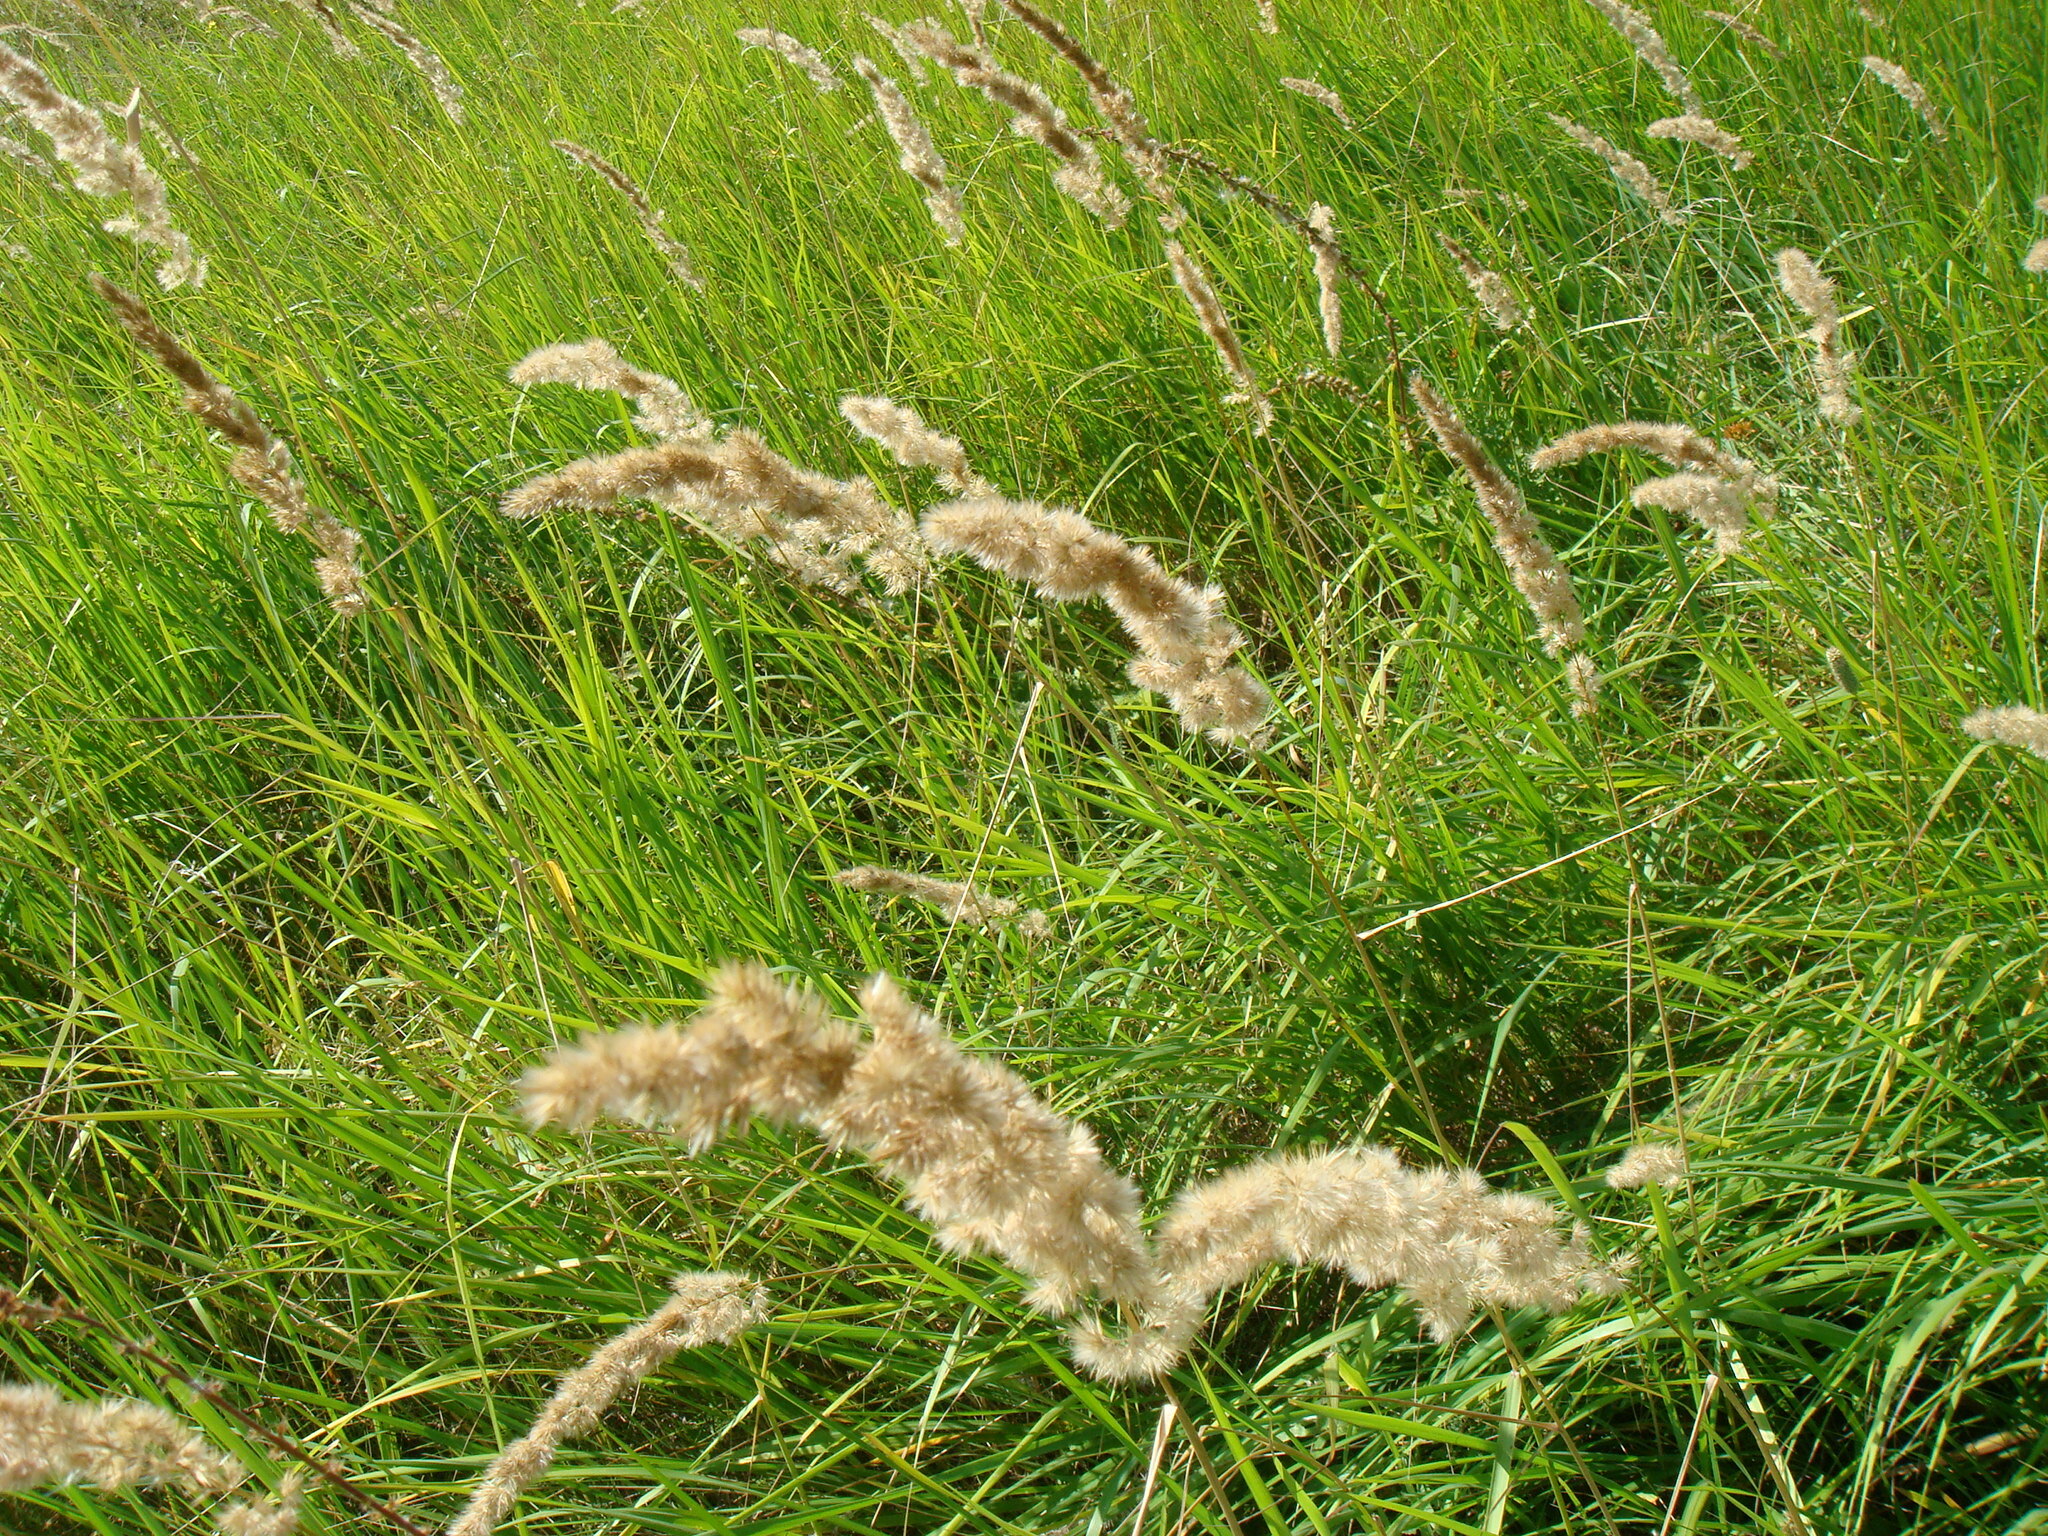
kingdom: Plantae
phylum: Tracheophyta
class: Liliopsida
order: Poales
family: Poaceae
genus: Calamagrostis
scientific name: Calamagrostis epigejos
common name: Wood small-reed
